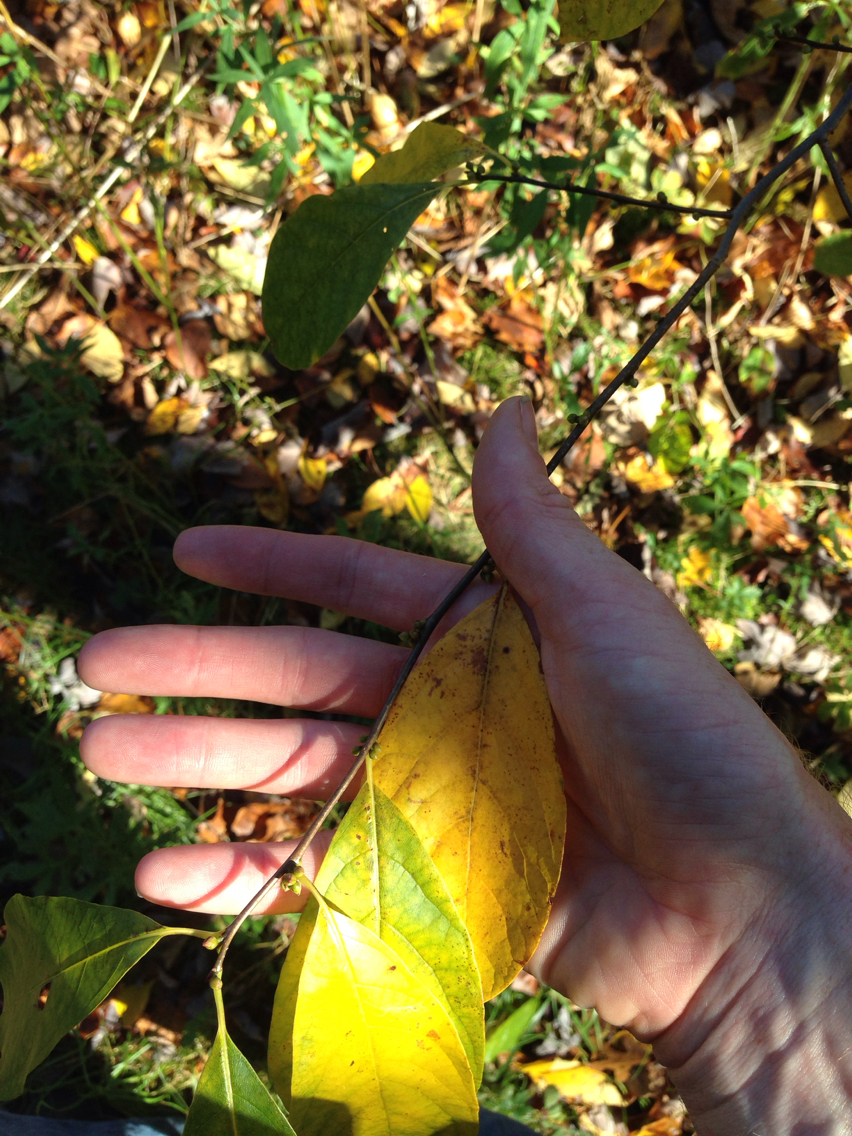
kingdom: Plantae
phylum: Tracheophyta
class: Magnoliopsida
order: Laurales
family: Lauraceae
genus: Lindera
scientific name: Lindera benzoin
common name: Spicebush
